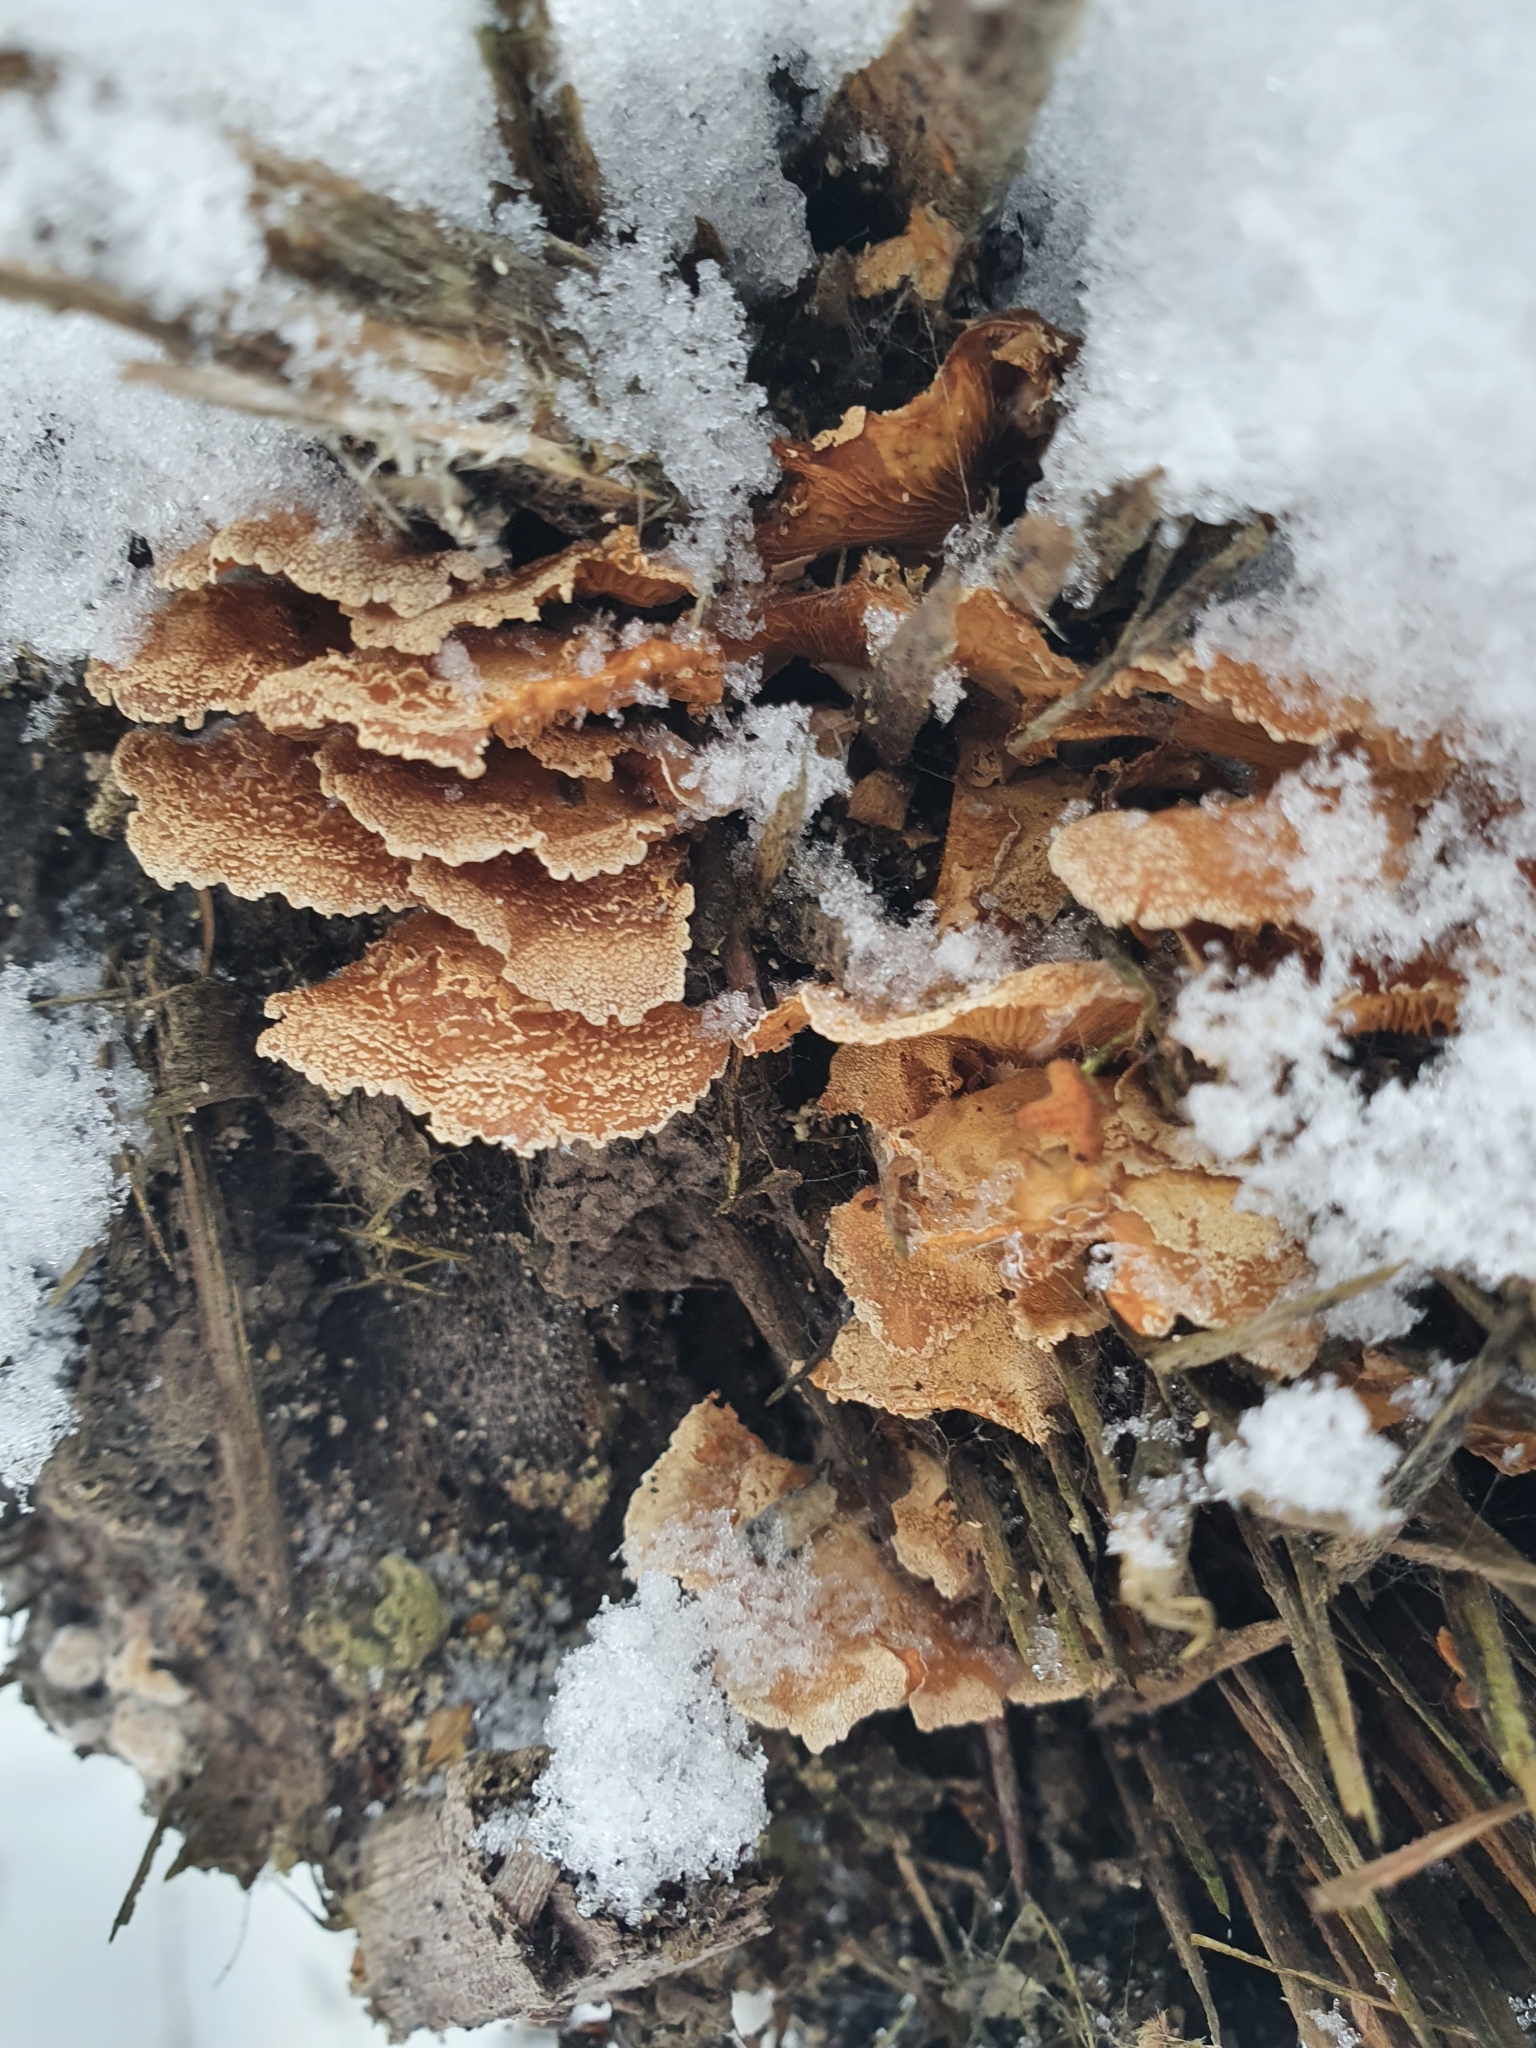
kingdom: Fungi
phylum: Basidiomycota
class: Agaricomycetes
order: Agaricales
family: Mycenaceae
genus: Panellus
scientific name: Panellus stipticus
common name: Bitter oysterling
